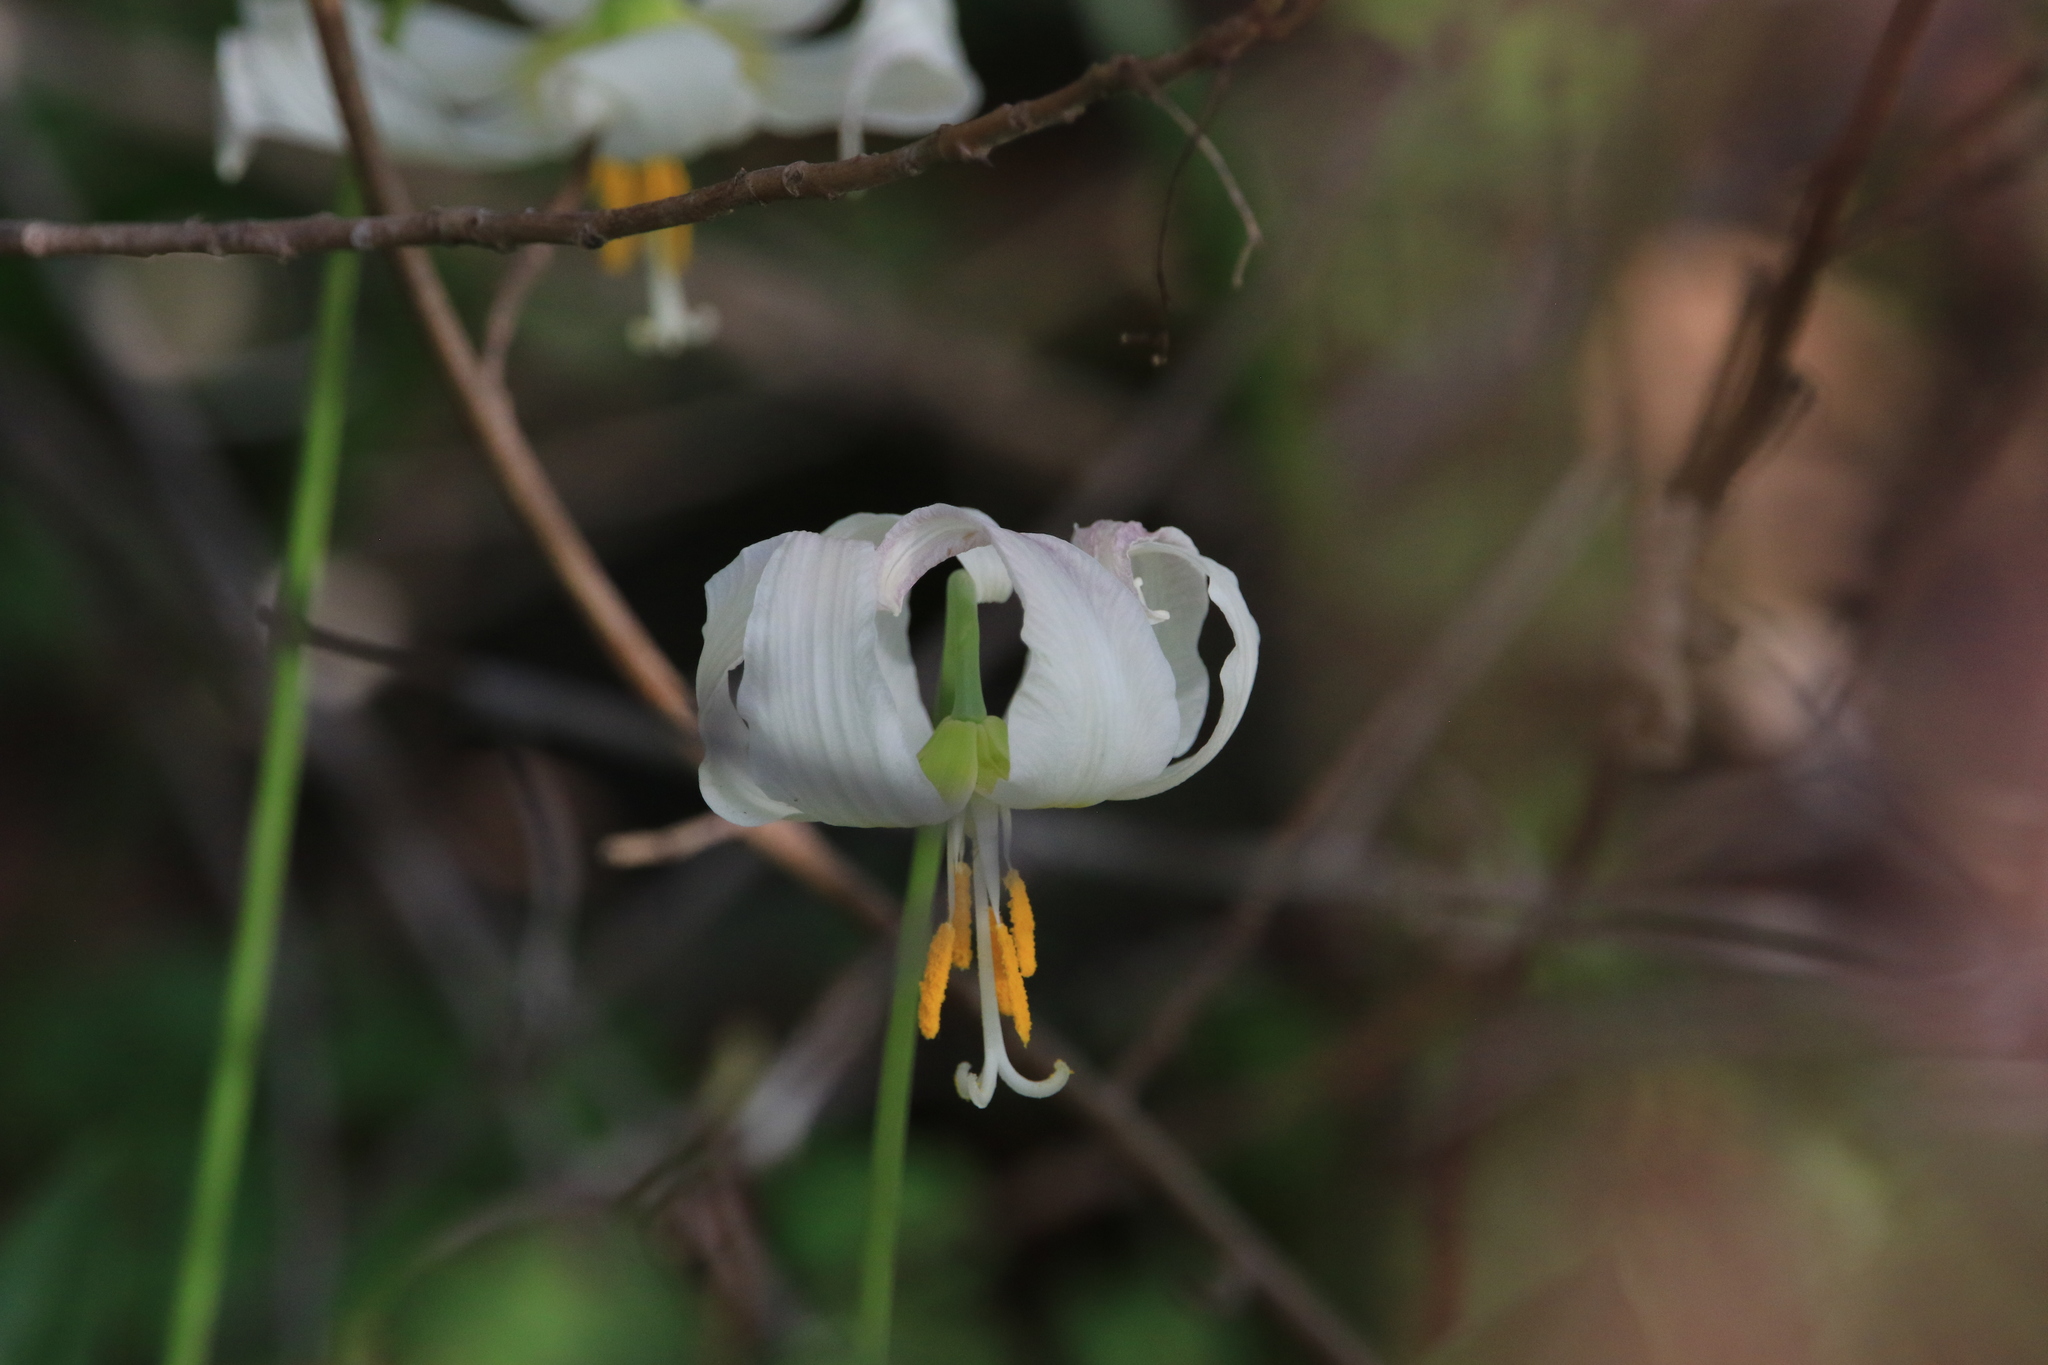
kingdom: Plantae
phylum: Tracheophyta
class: Liliopsida
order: Liliales
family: Liliaceae
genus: Erythronium
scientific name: Erythronium oregonum
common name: Giant adder's-tongue
